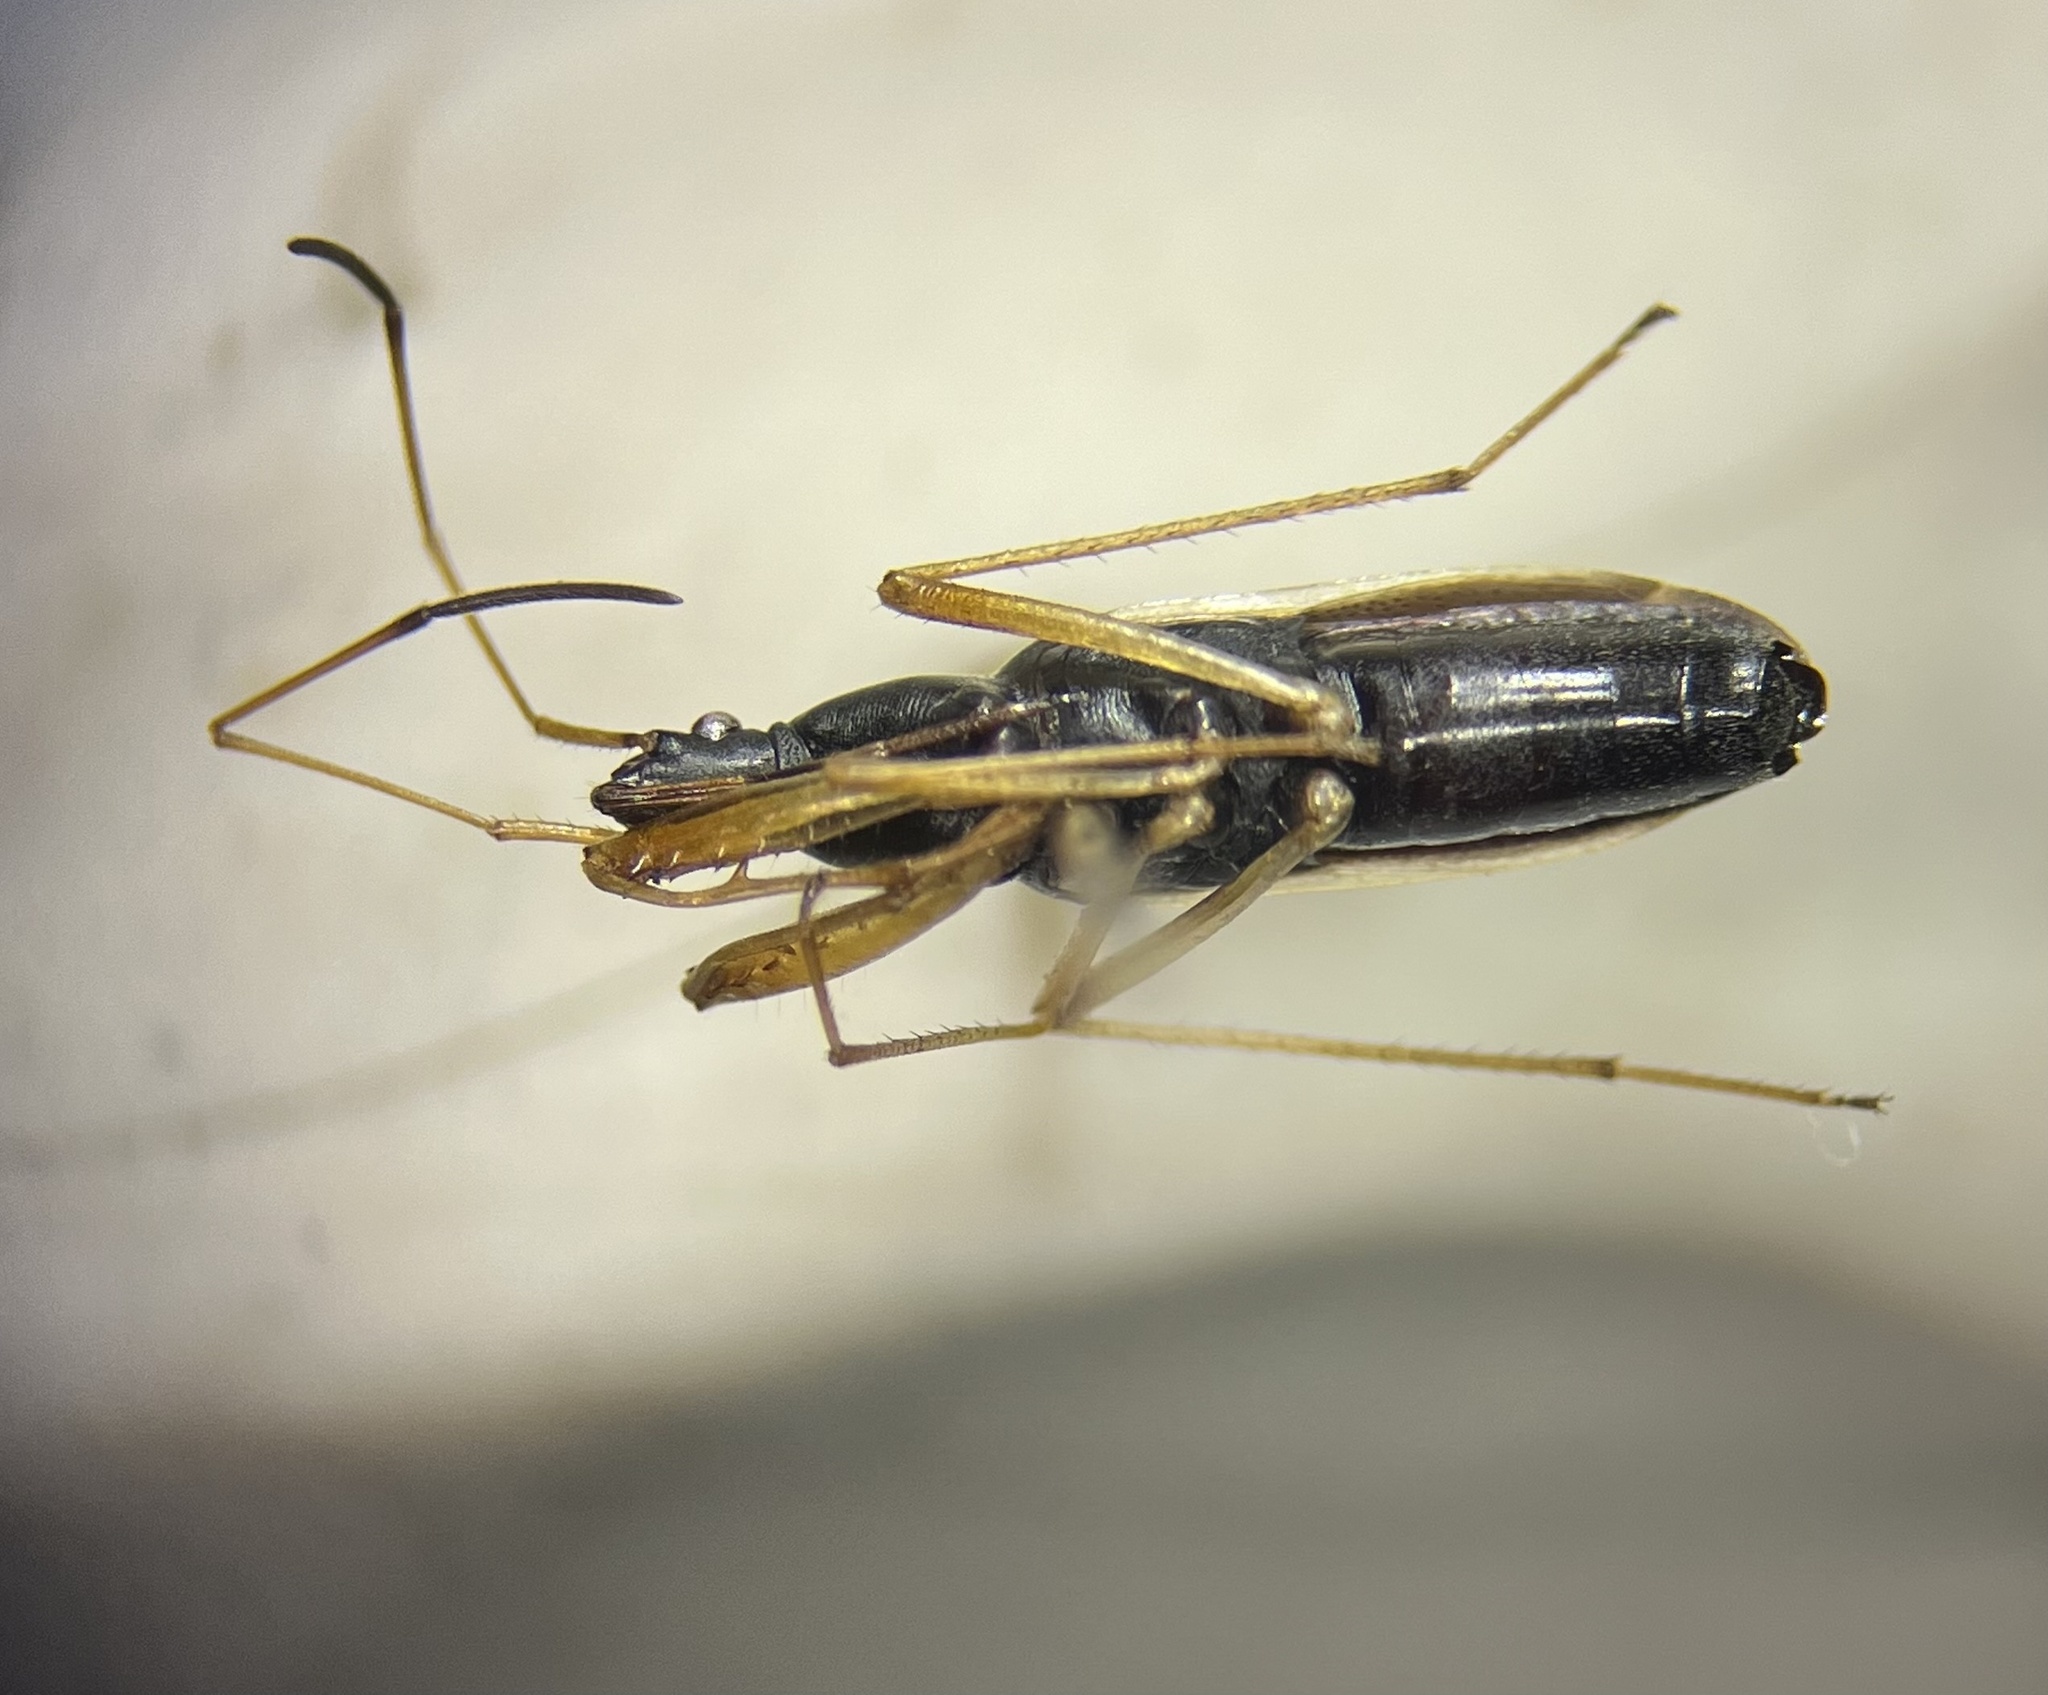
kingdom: Animalia
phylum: Arthropoda
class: Insecta
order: Hemiptera
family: Rhyparochromidae
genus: Cnemodus
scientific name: Cnemodus mavortius
